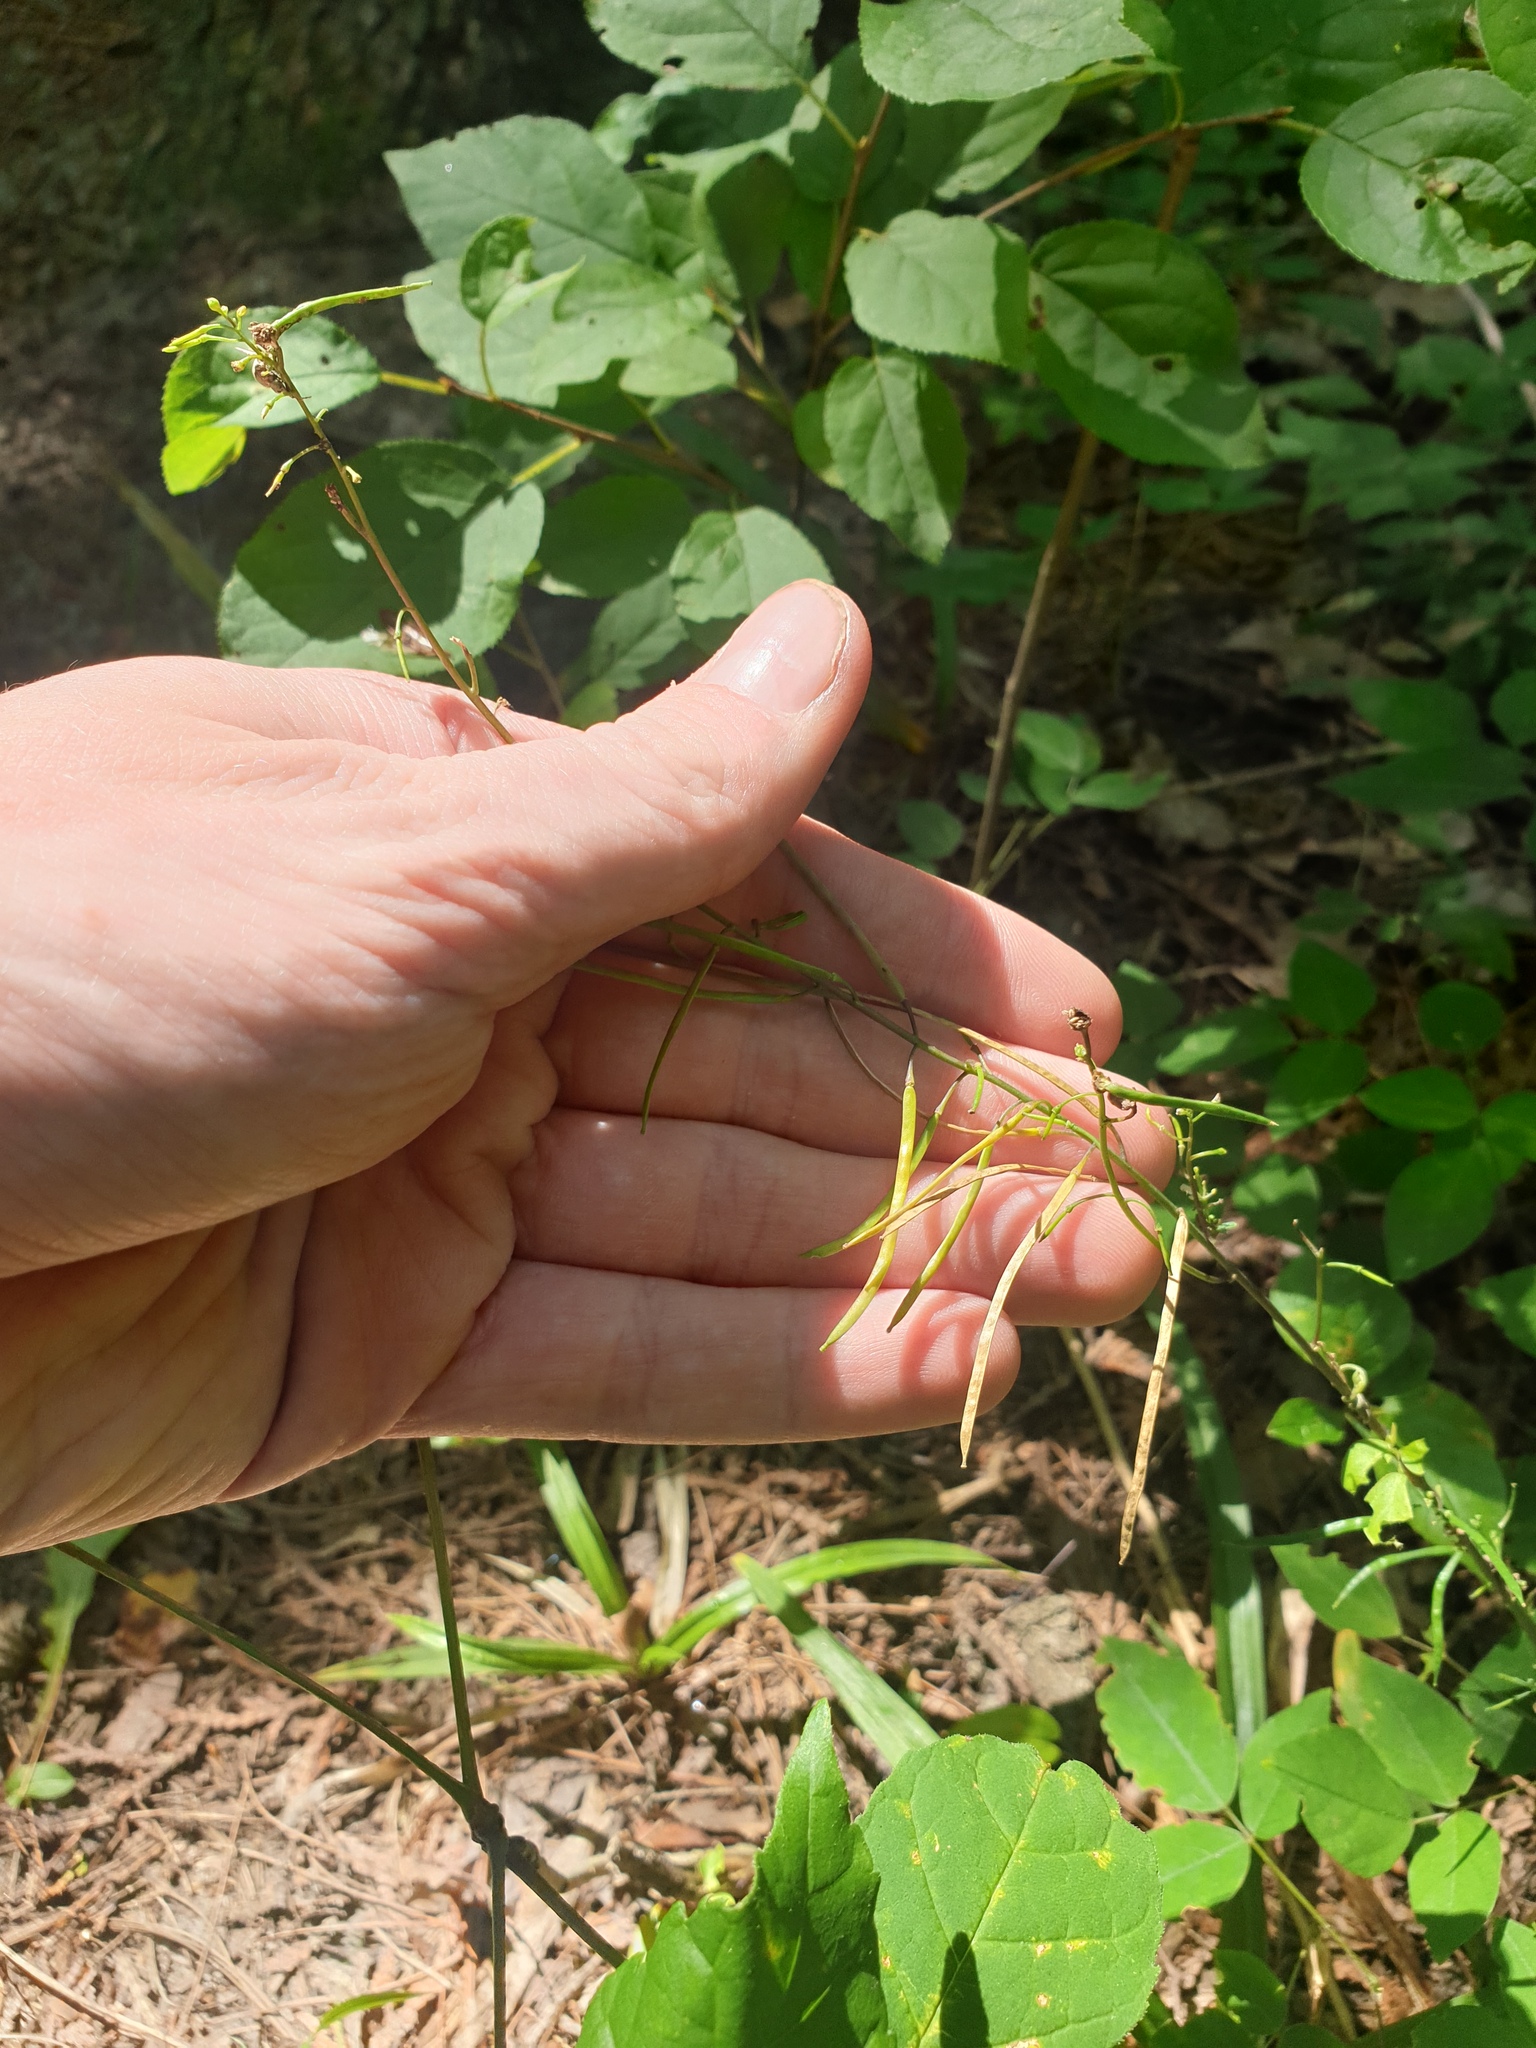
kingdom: Plantae
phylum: Tracheophyta
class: Magnoliopsida
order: Brassicales
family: Brassicaceae
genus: Borodinia
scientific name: Borodinia canadensis
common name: Sicklepod
